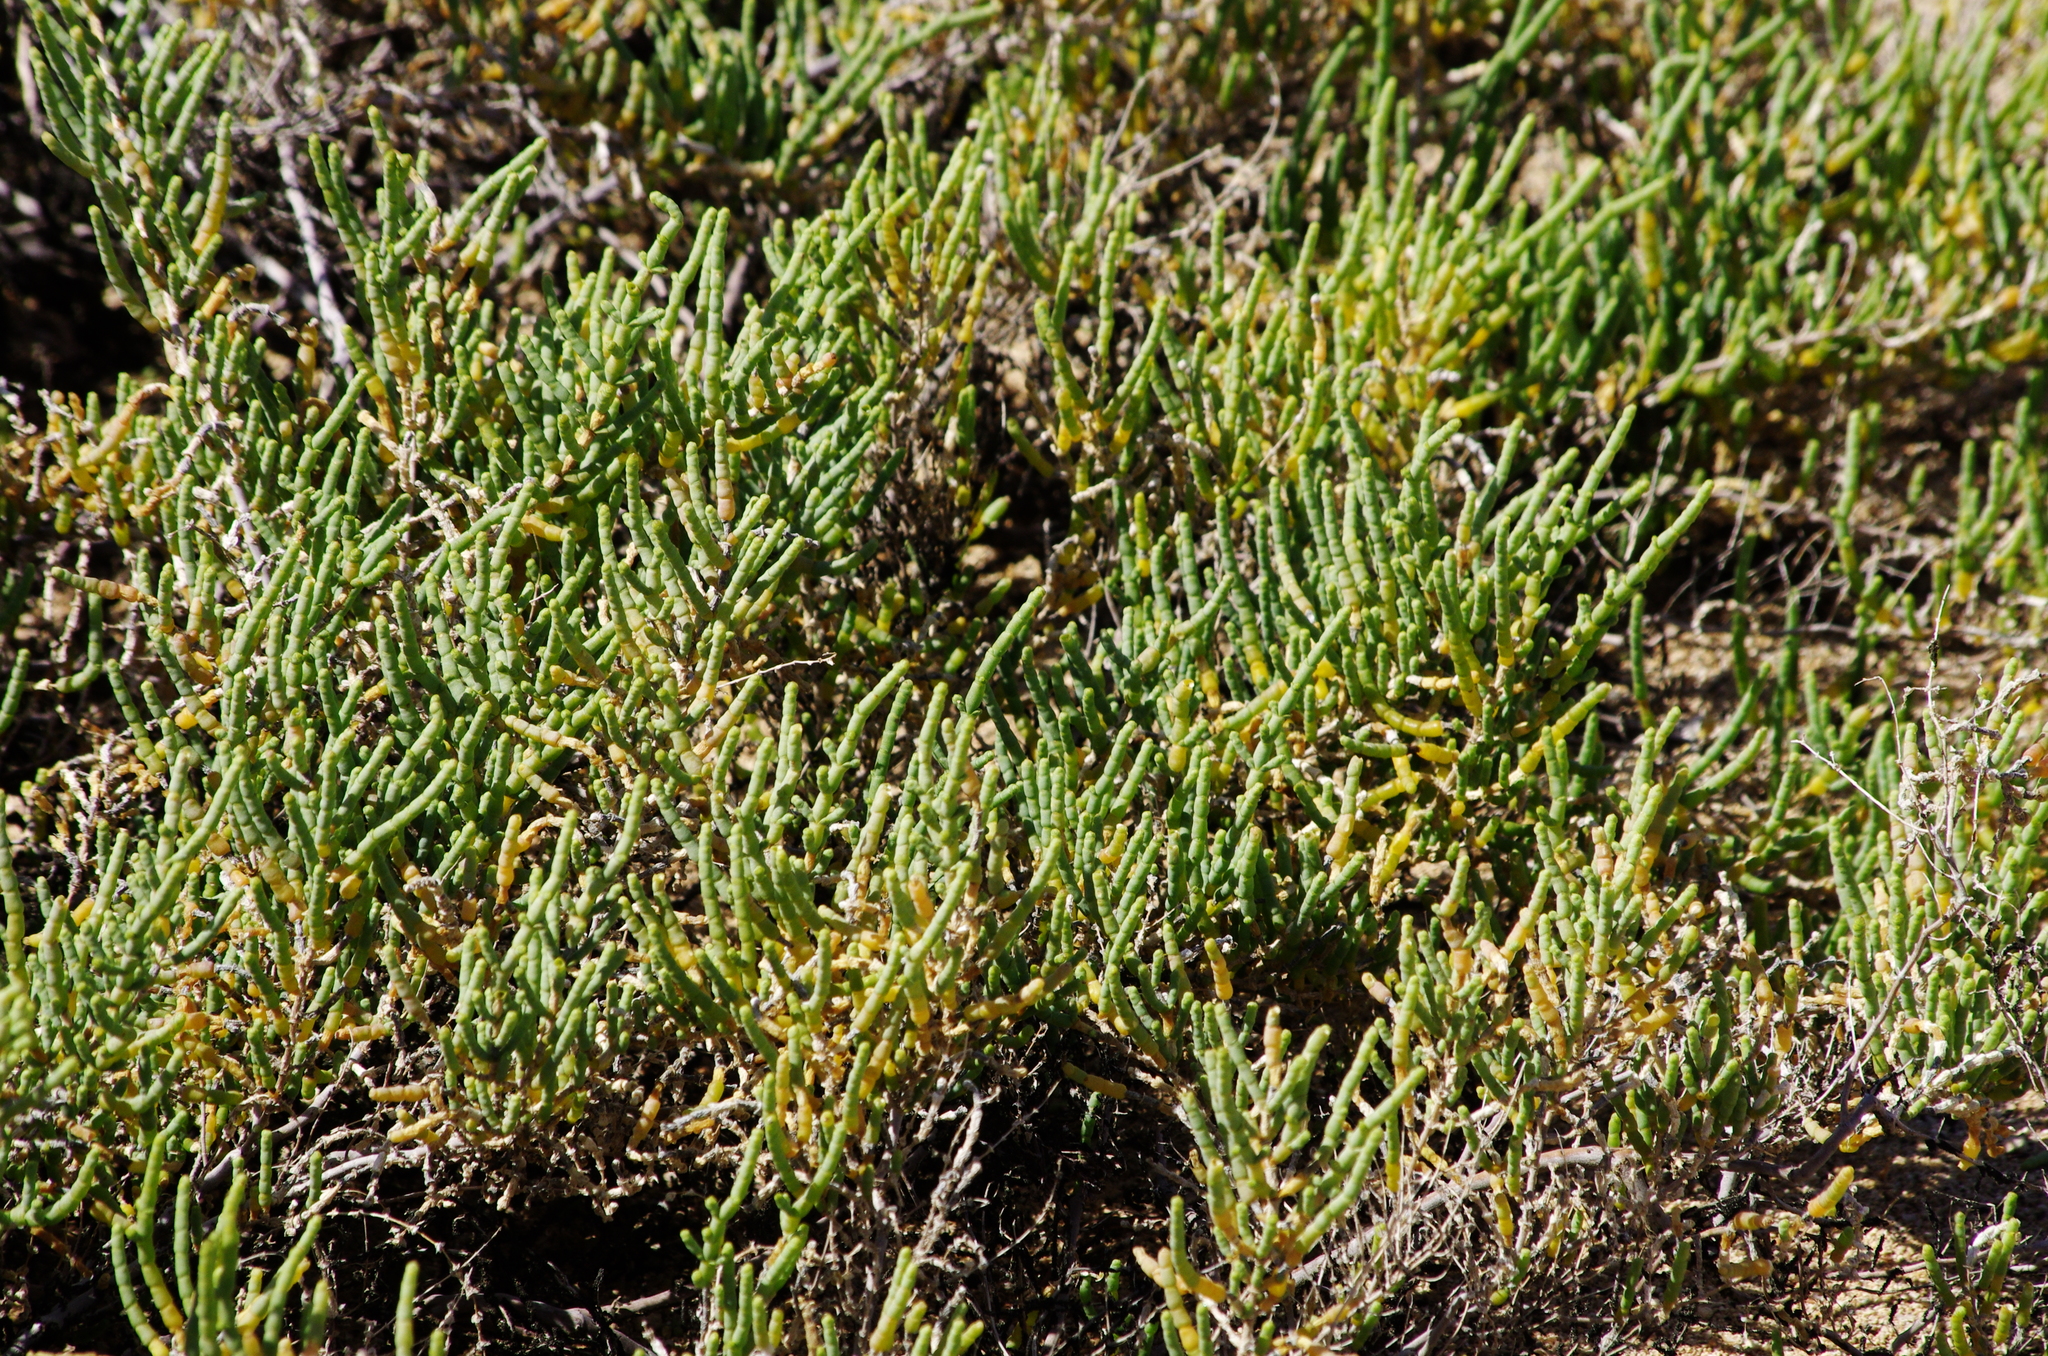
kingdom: Plantae
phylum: Tracheophyta
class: Magnoliopsida
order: Caryophyllales
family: Amaranthaceae
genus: Arthrocaulon
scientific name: Arthrocaulon macrostachyum
